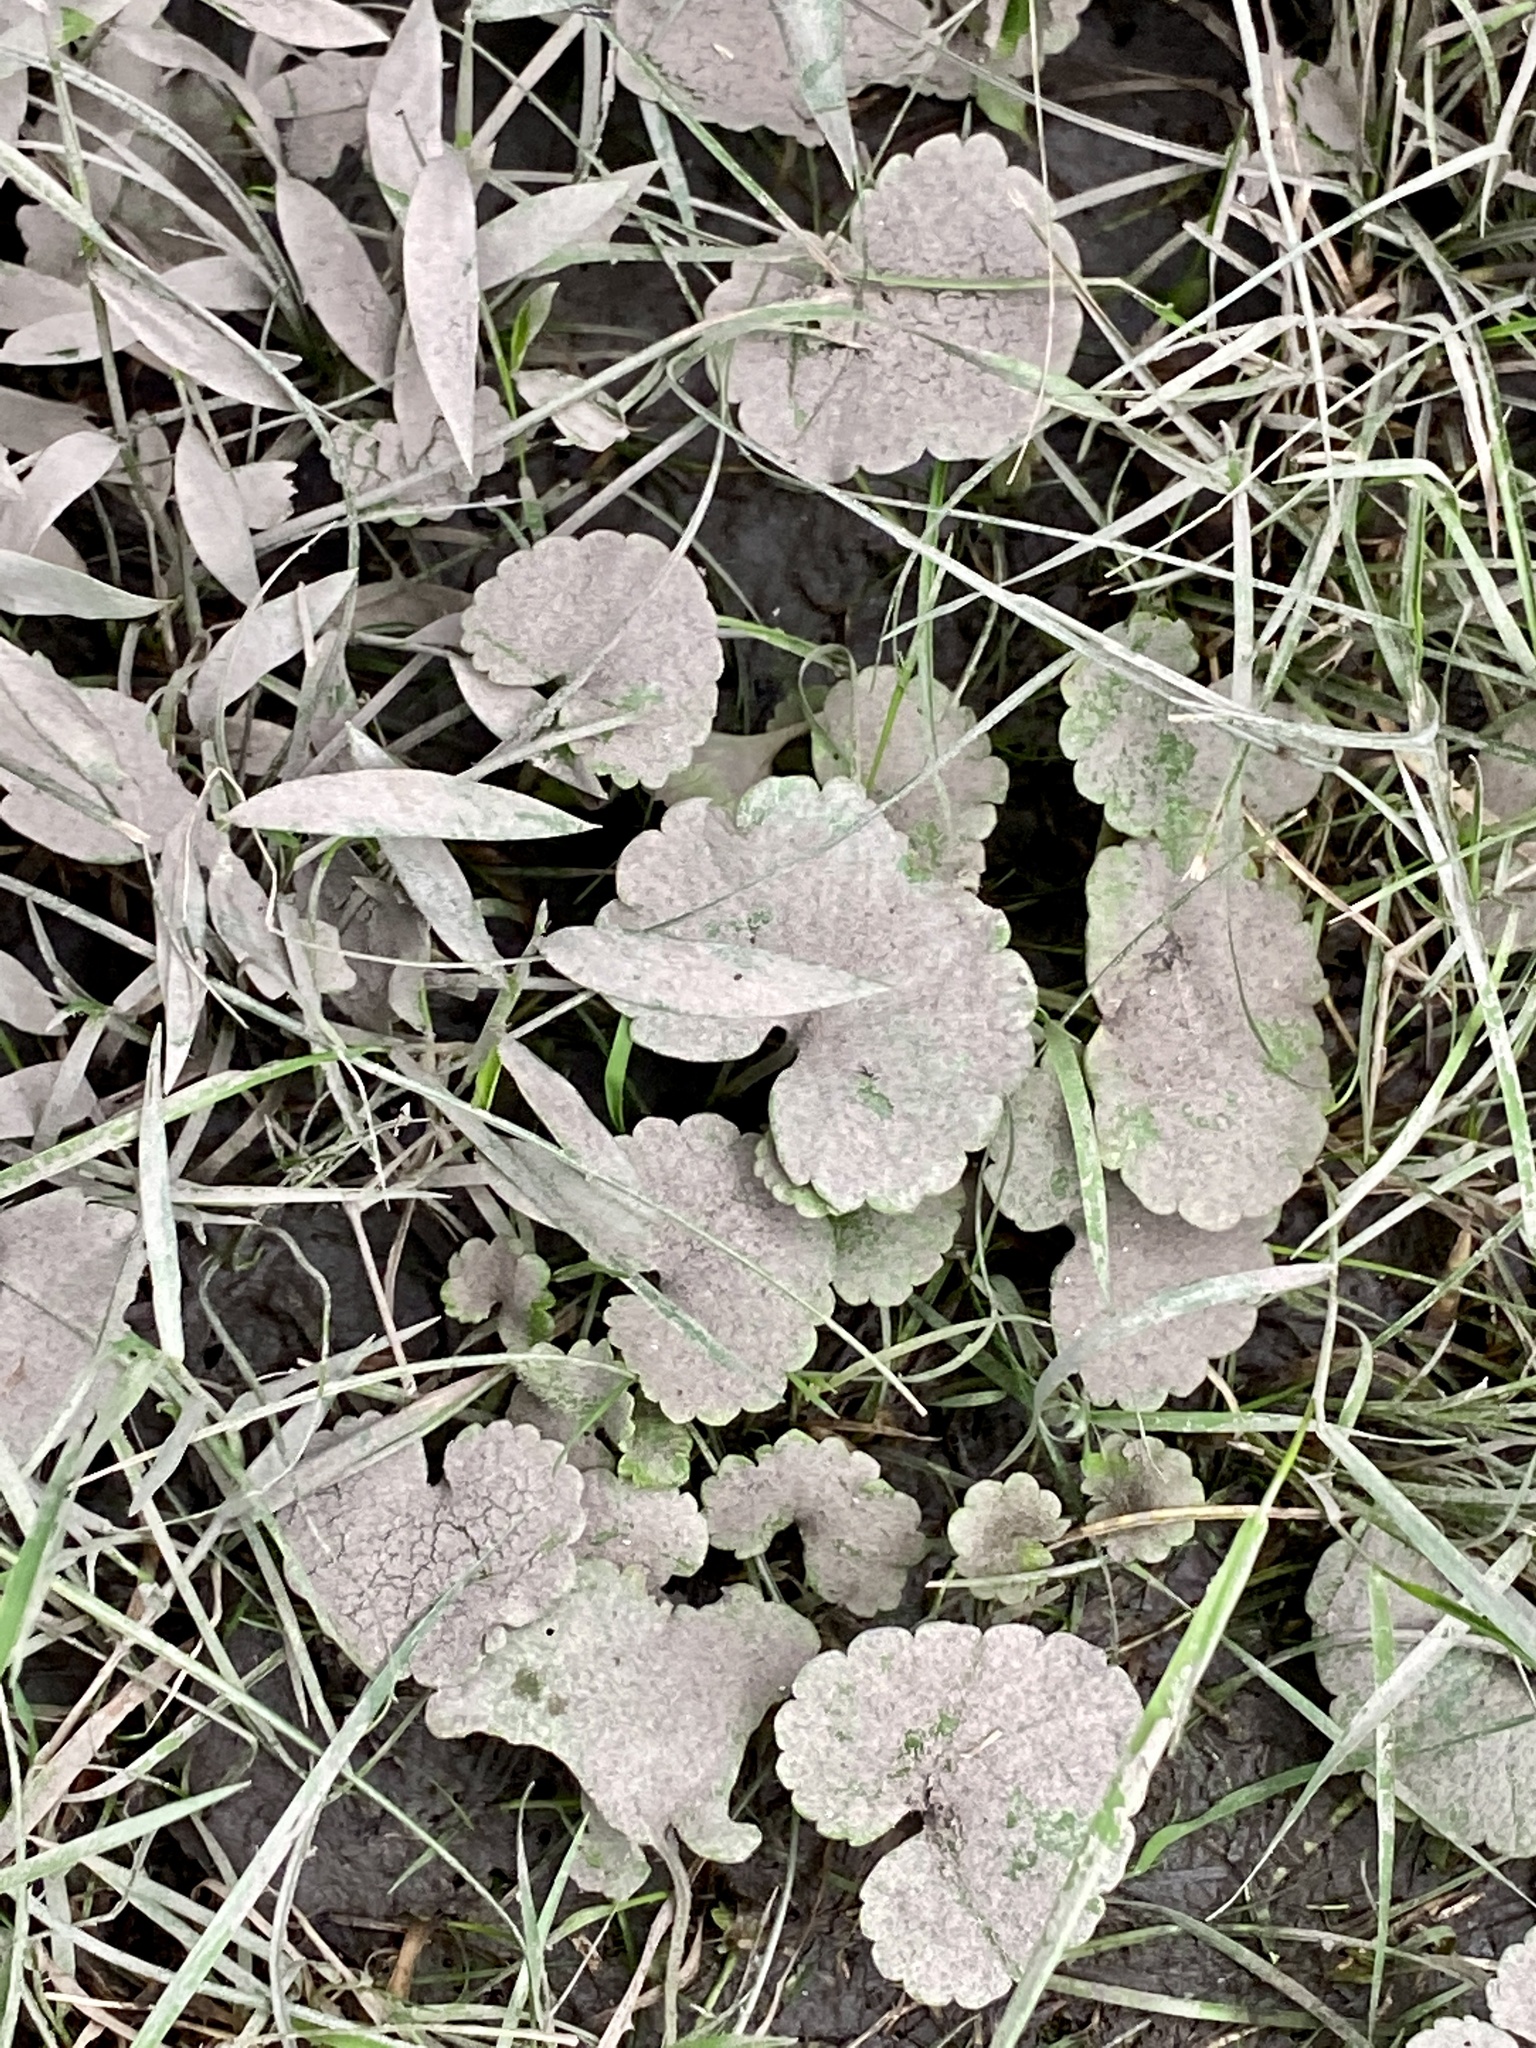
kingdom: Plantae
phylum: Tracheophyta
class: Magnoliopsida
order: Lamiales
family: Lamiaceae
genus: Glechoma
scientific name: Glechoma hederacea
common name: Ground ivy
